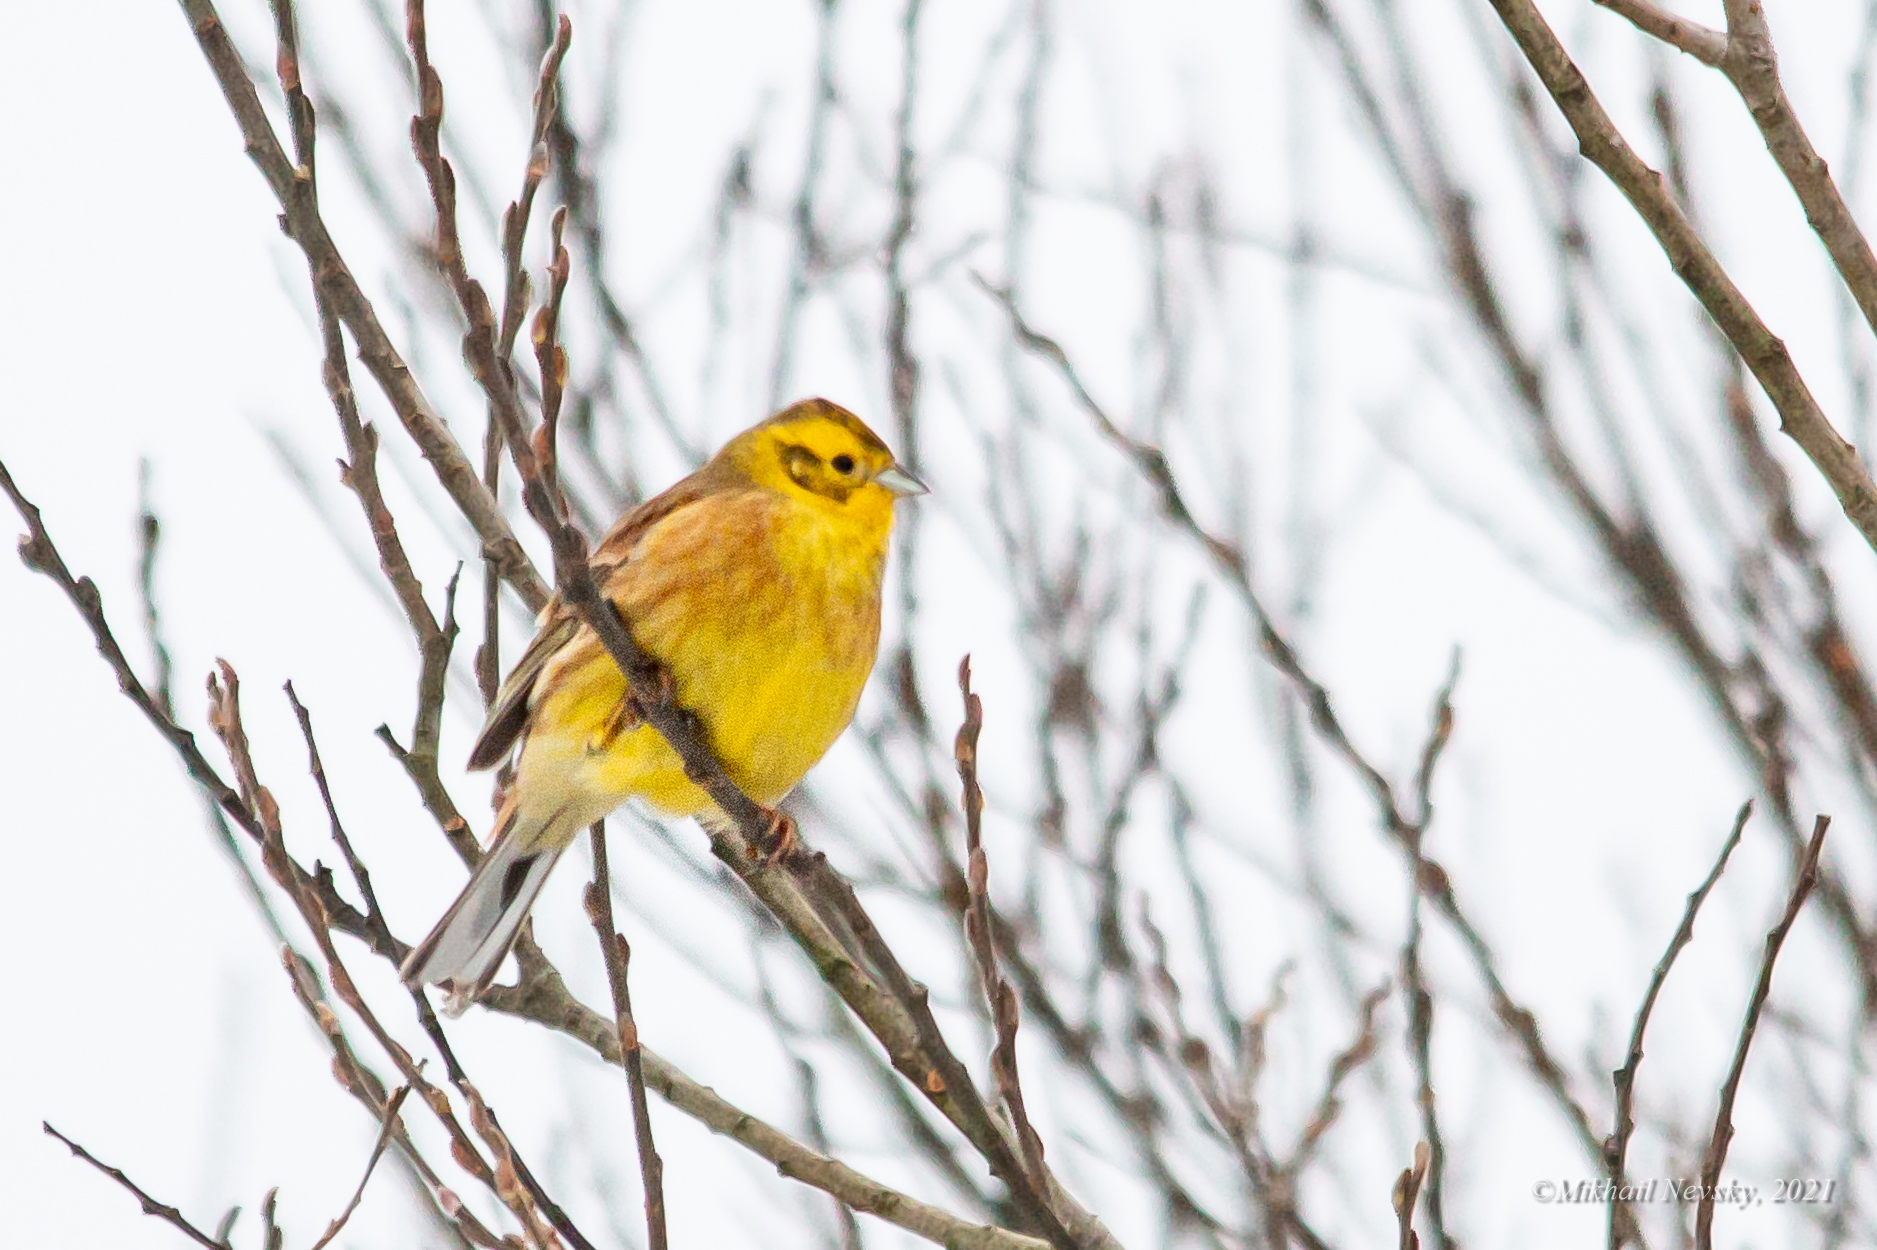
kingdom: Animalia
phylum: Chordata
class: Aves
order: Passeriformes
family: Emberizidae
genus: Emberiza
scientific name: Emberiza citrinella
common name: Yellowhammer
